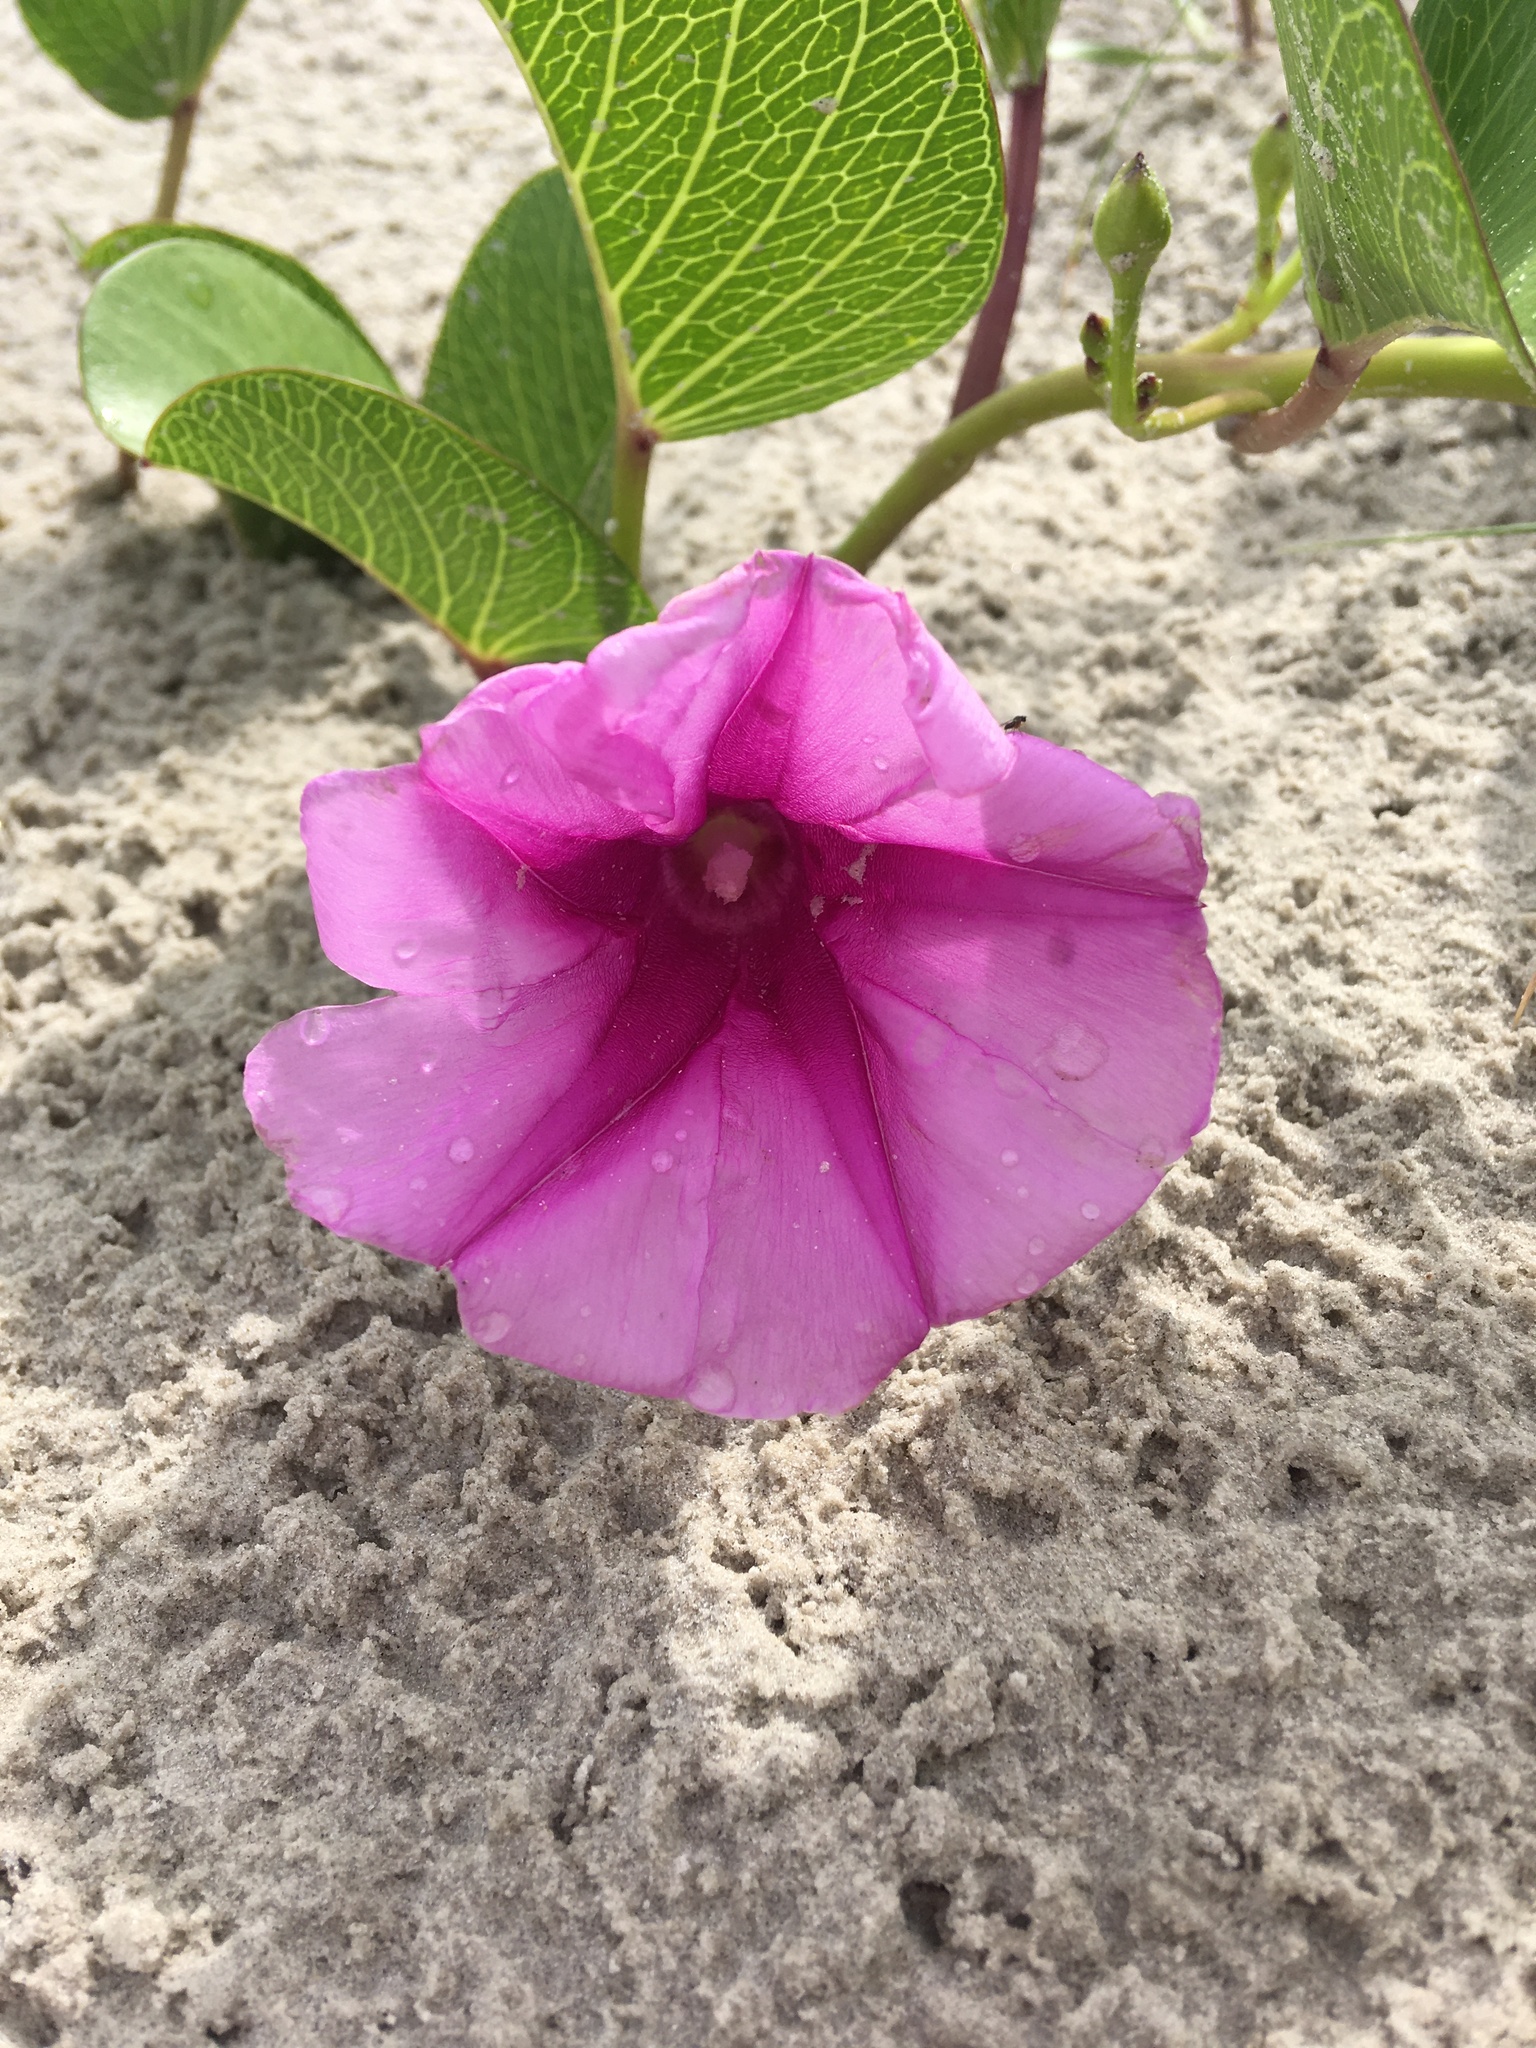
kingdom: Plantae
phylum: Tracheophyta
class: Magnoliopsida
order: Solanales
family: Convolvulaceae
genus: Ipomoea
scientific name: Ipomoea pes-caprae
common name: Beach morning glory
